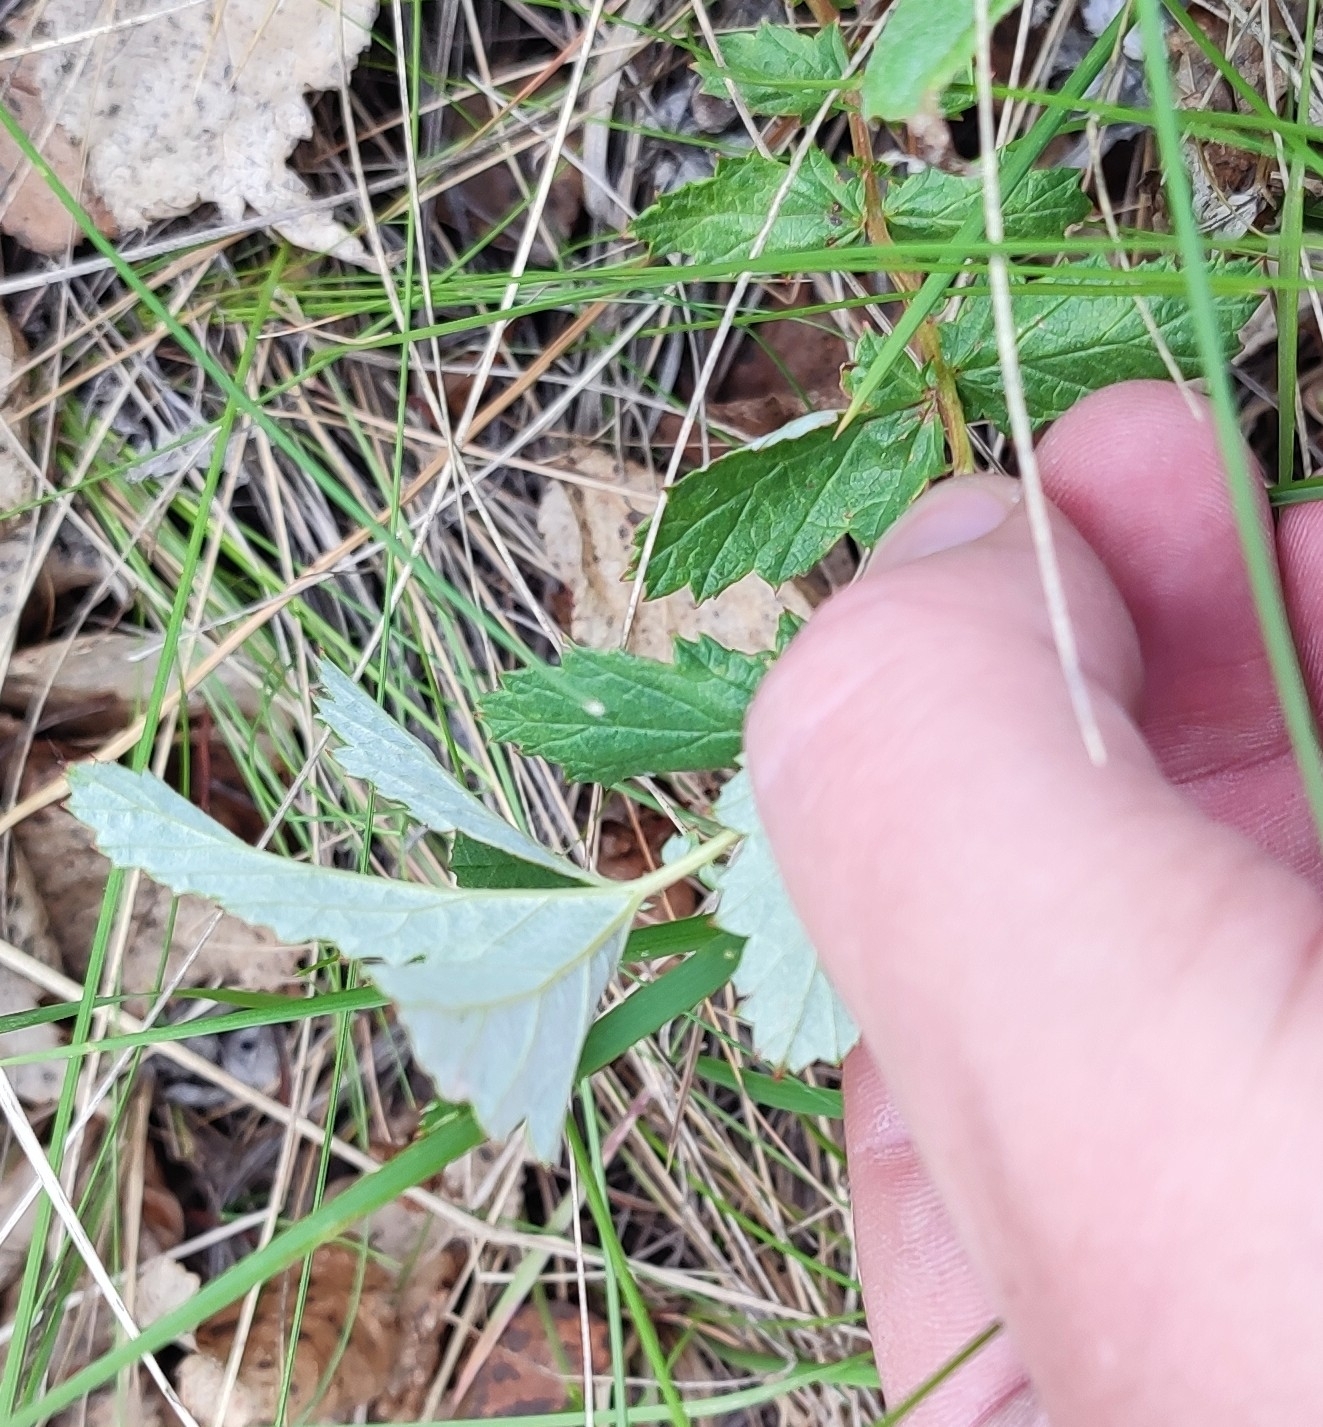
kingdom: Plantae
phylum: Tracheophyta
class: Magnoliopsida
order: Rosales
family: Rosaceae
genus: Filipendula
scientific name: Filipendula ulmaria
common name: Meadowsweet
